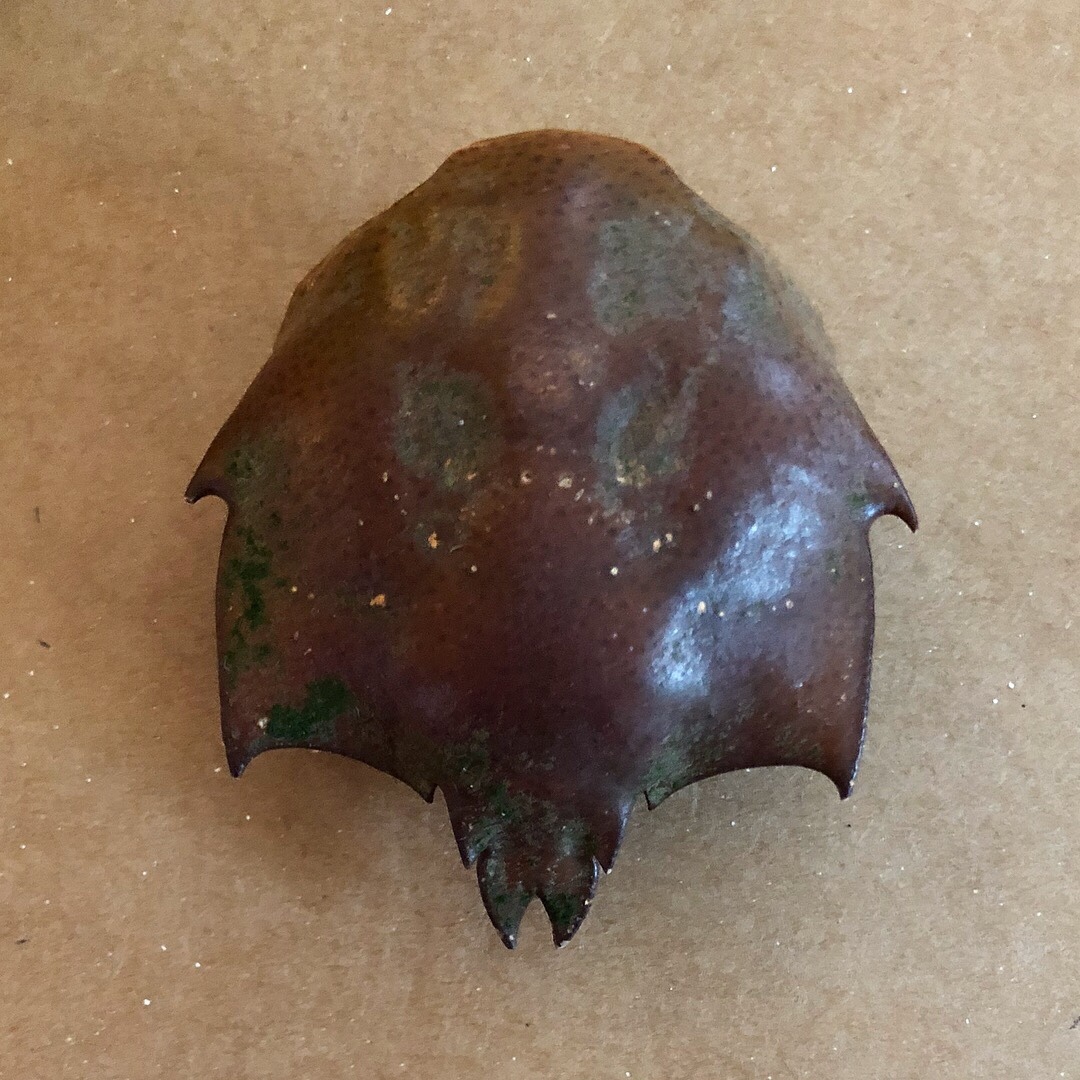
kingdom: Animalia
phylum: Arthropoda
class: Malacostraca
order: Decapoda
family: Epialtidae
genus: Pugettia
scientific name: Pugettia producta
